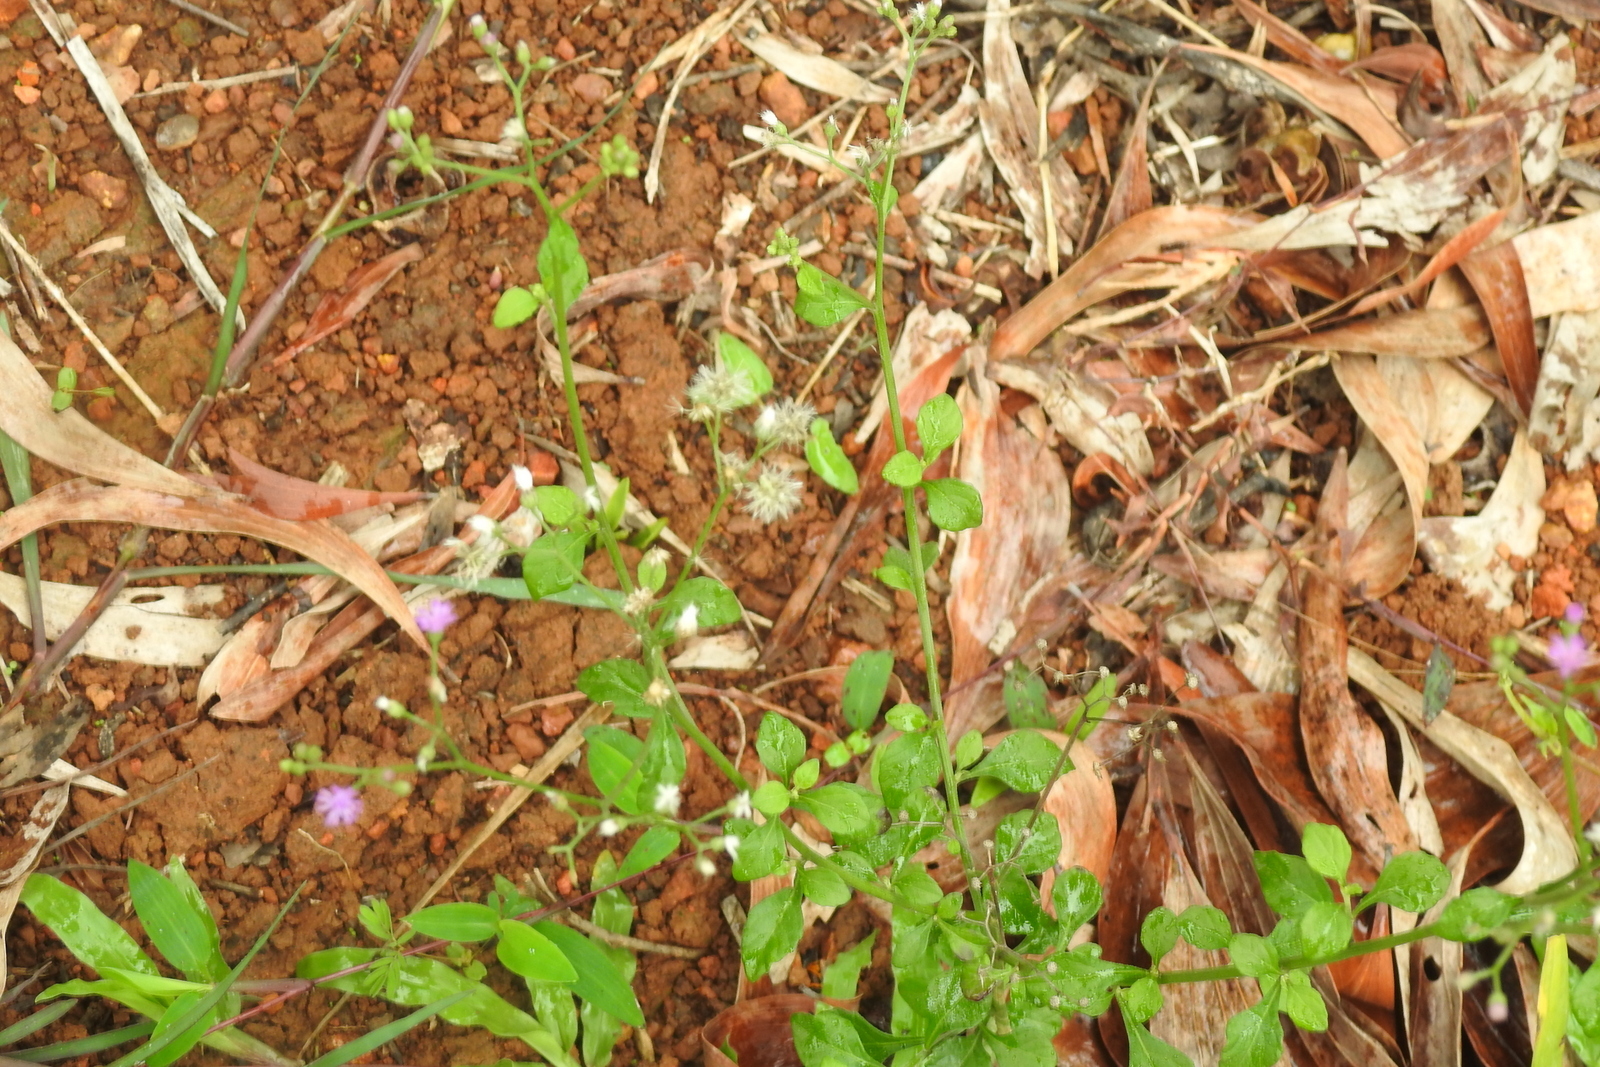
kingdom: Plantae
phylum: Tracheophyta
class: Magnoliopsida
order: Asterales
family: Asteraceae
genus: Cyanthillium
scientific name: Cyanthillium cinereum
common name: Little ironweed
